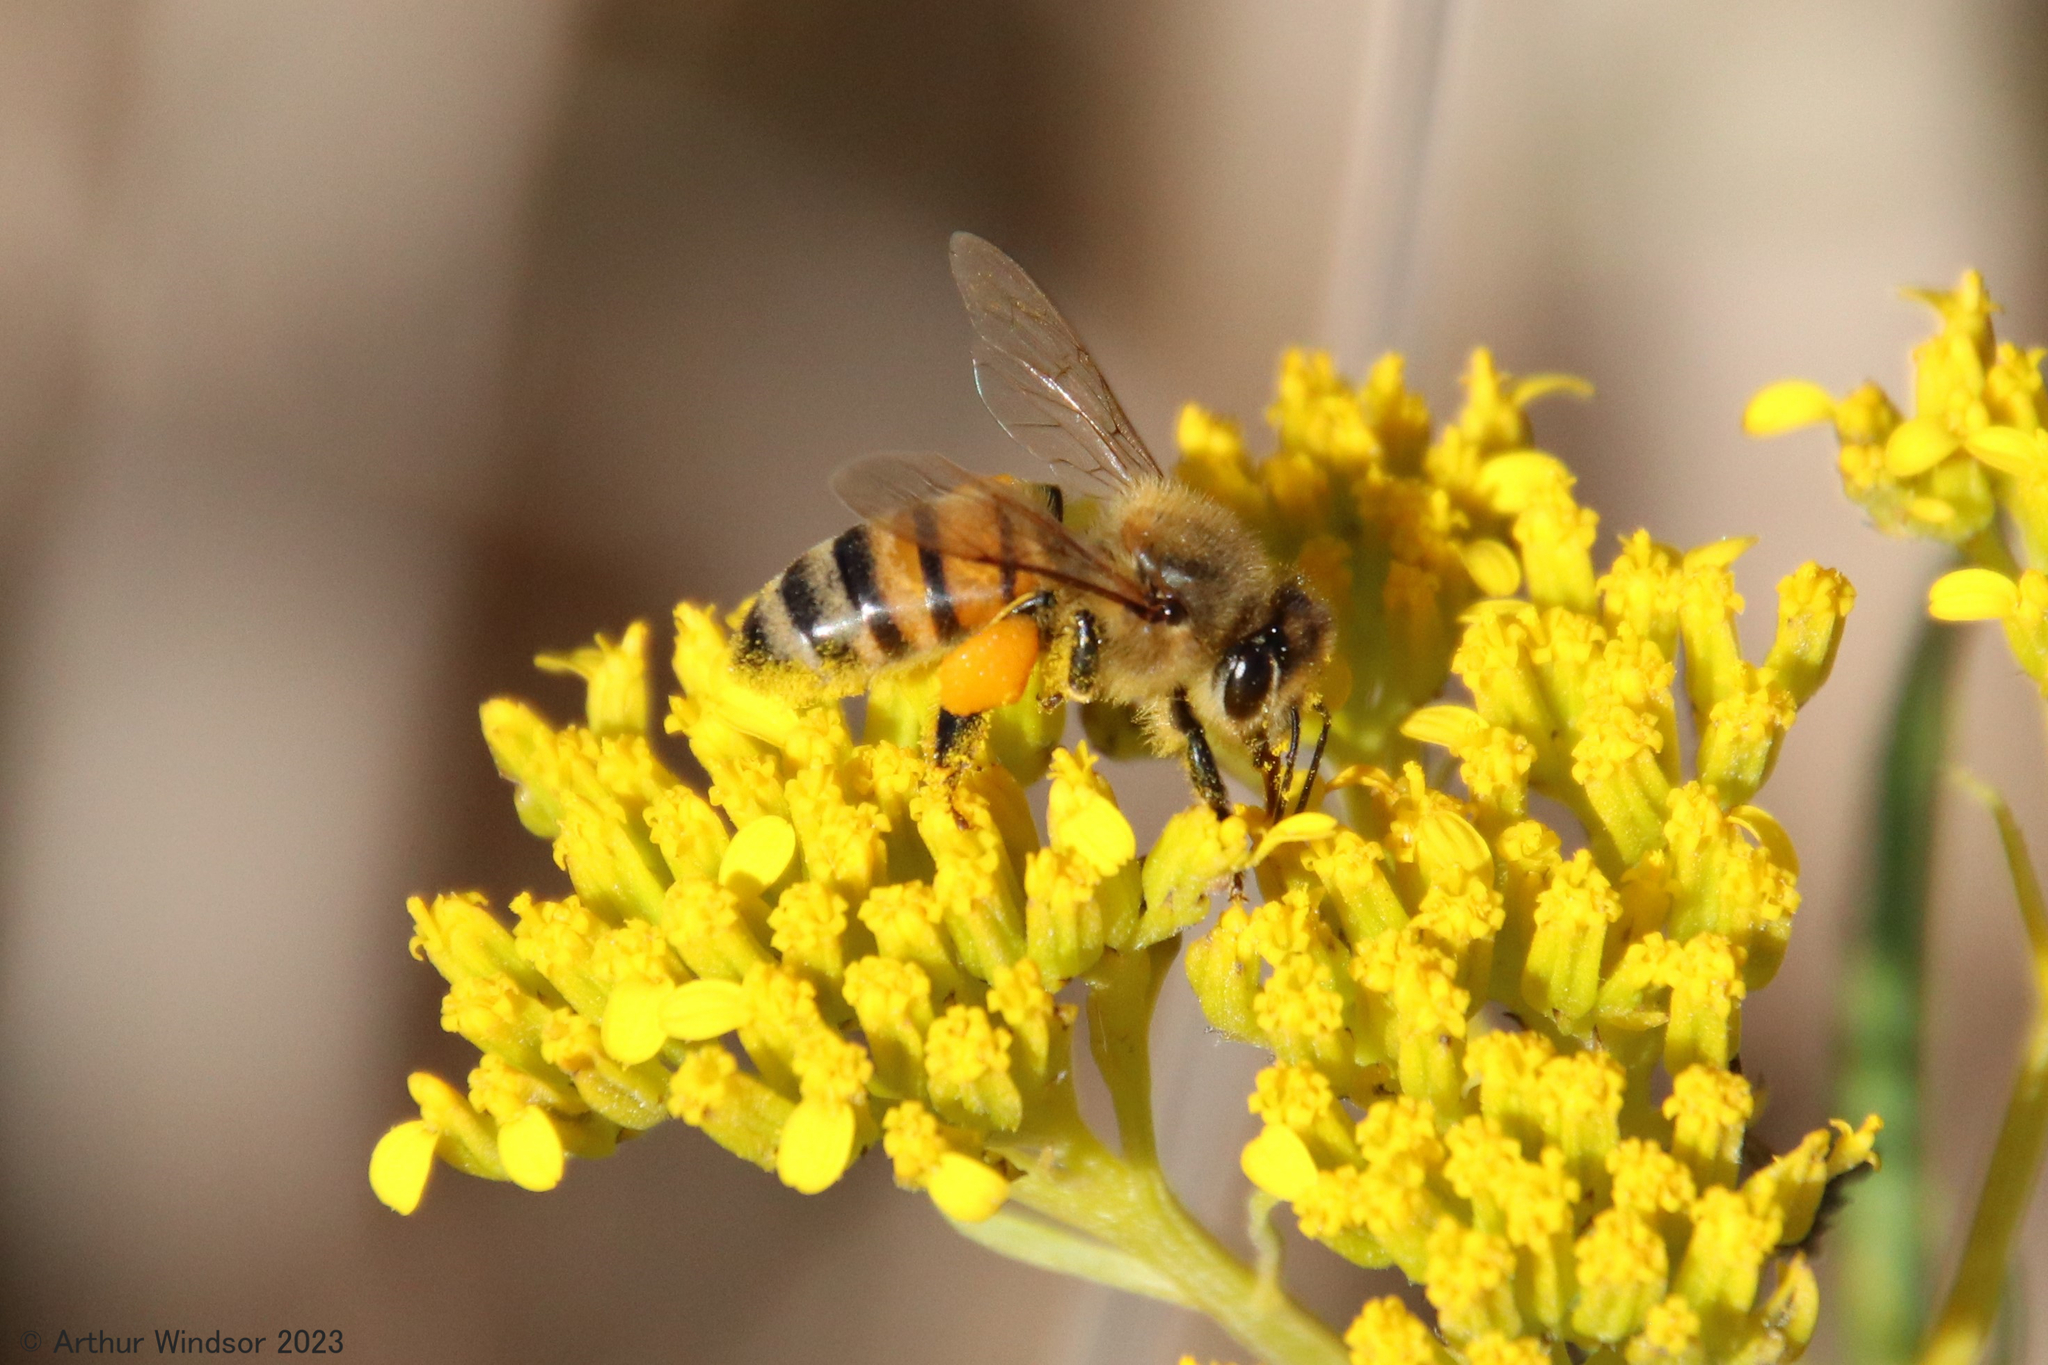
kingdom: Animalia
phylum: Arthropoda
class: Insecta
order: Hymenoptera
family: Apidae
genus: Apis
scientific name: Apis mellifera
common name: Honey bee
